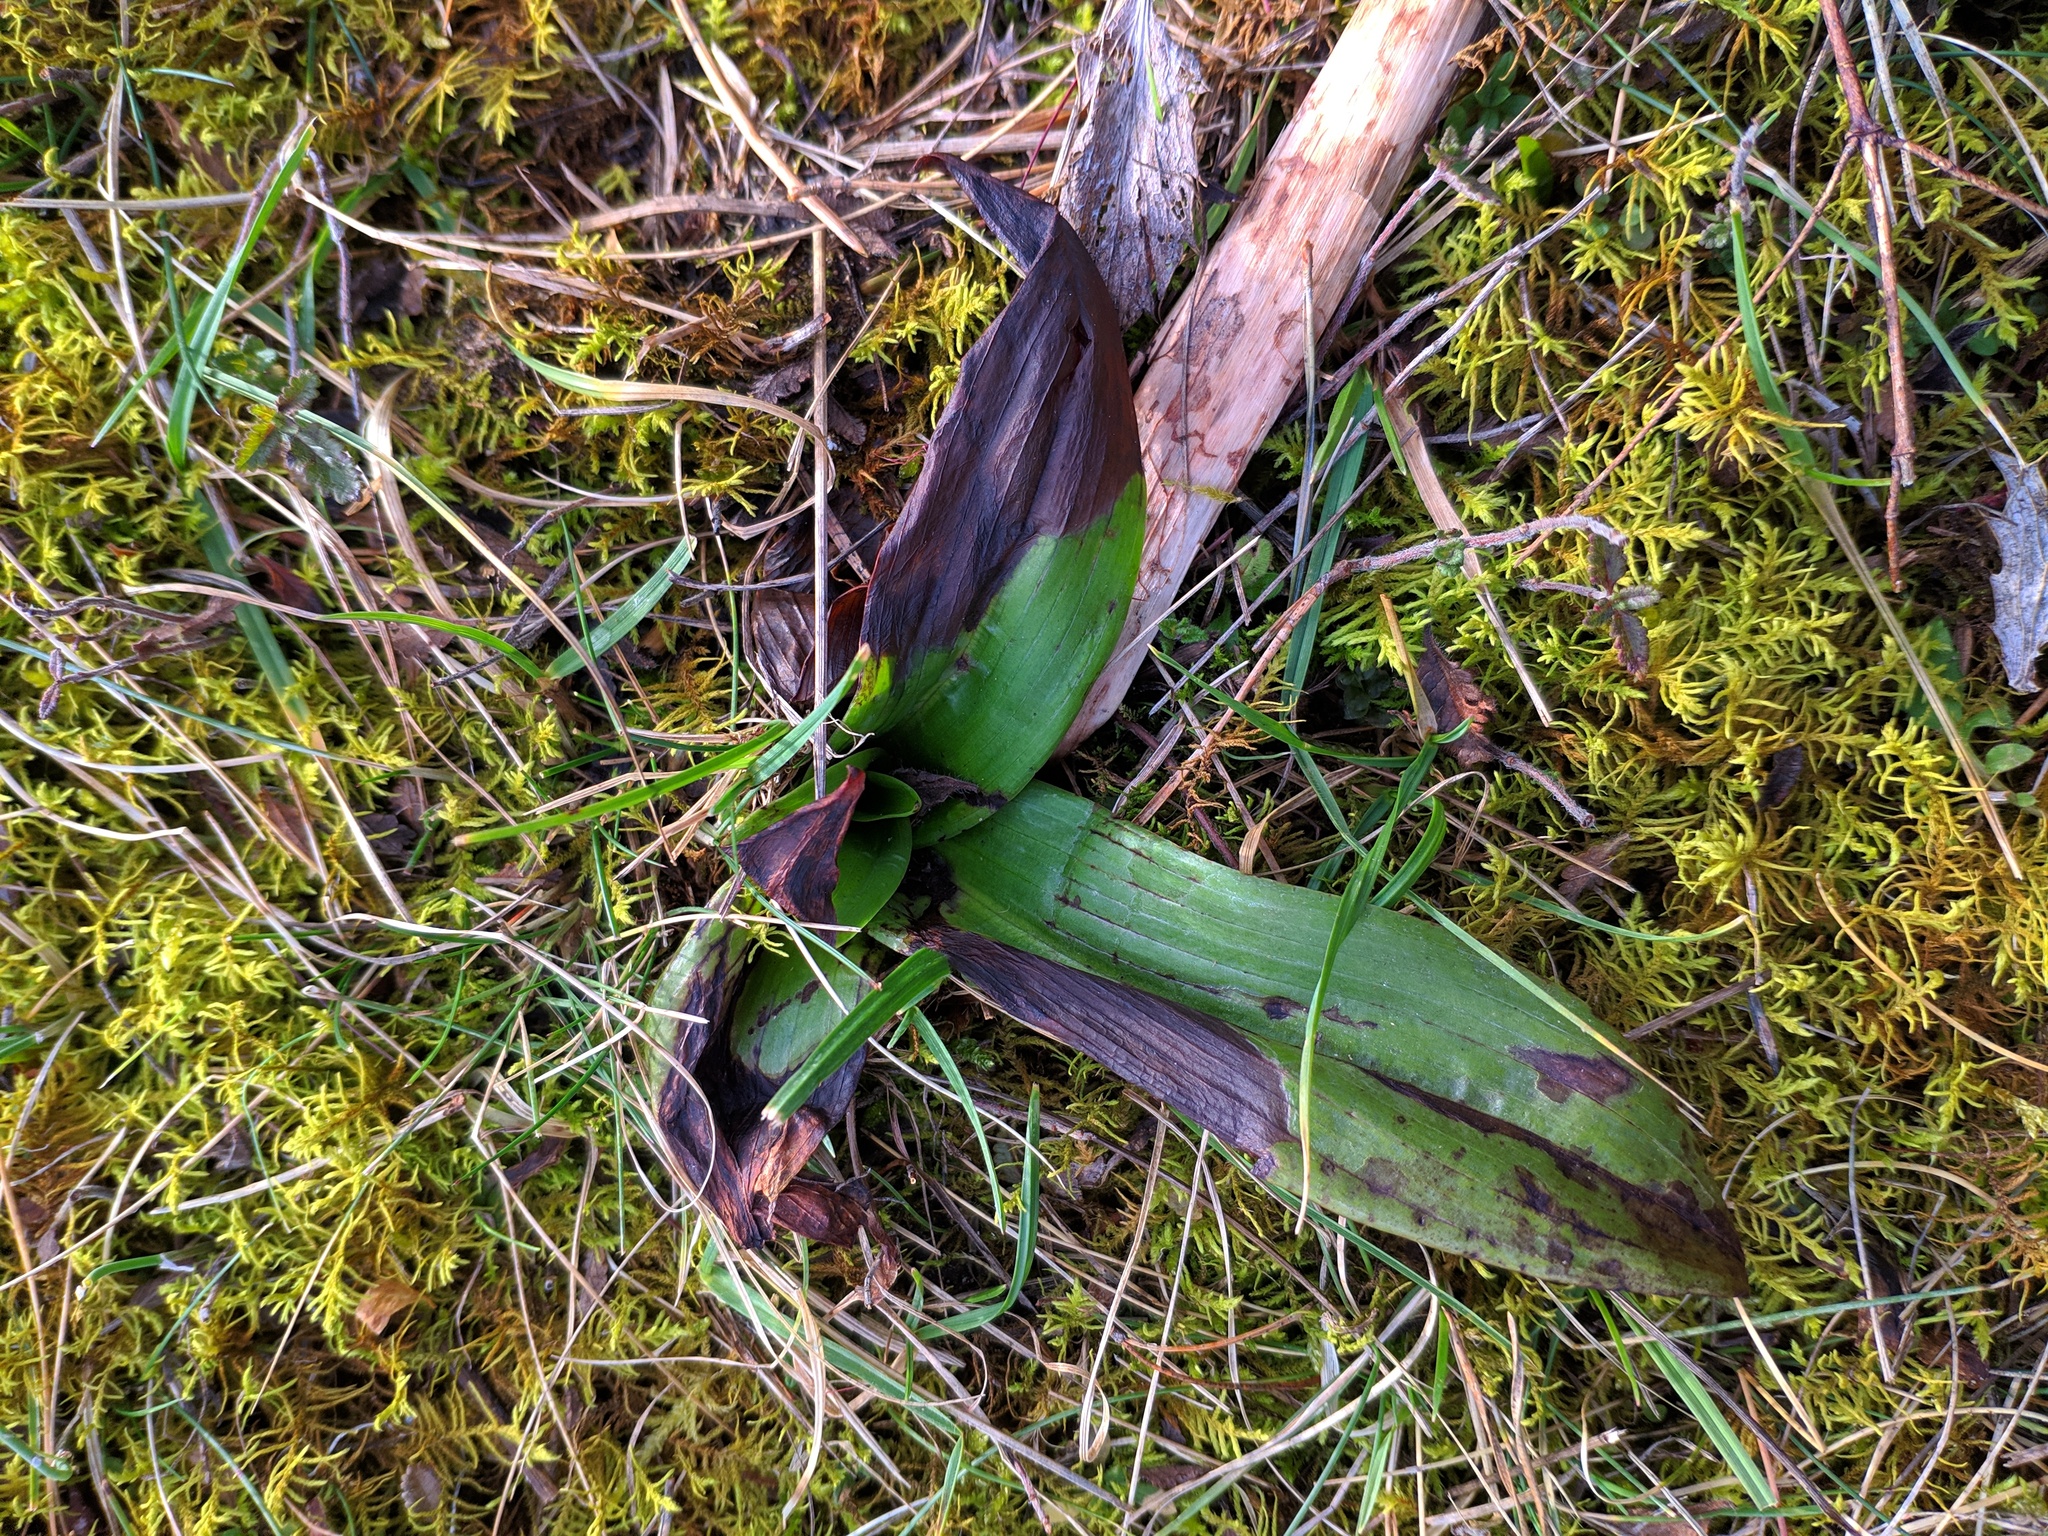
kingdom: Plantae
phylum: Tracheophyta
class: Liliopsida
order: Asparagales
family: Orchidaceae
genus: Himantoglossum
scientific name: Himantoglossum hircinum
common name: Lizard orchid
